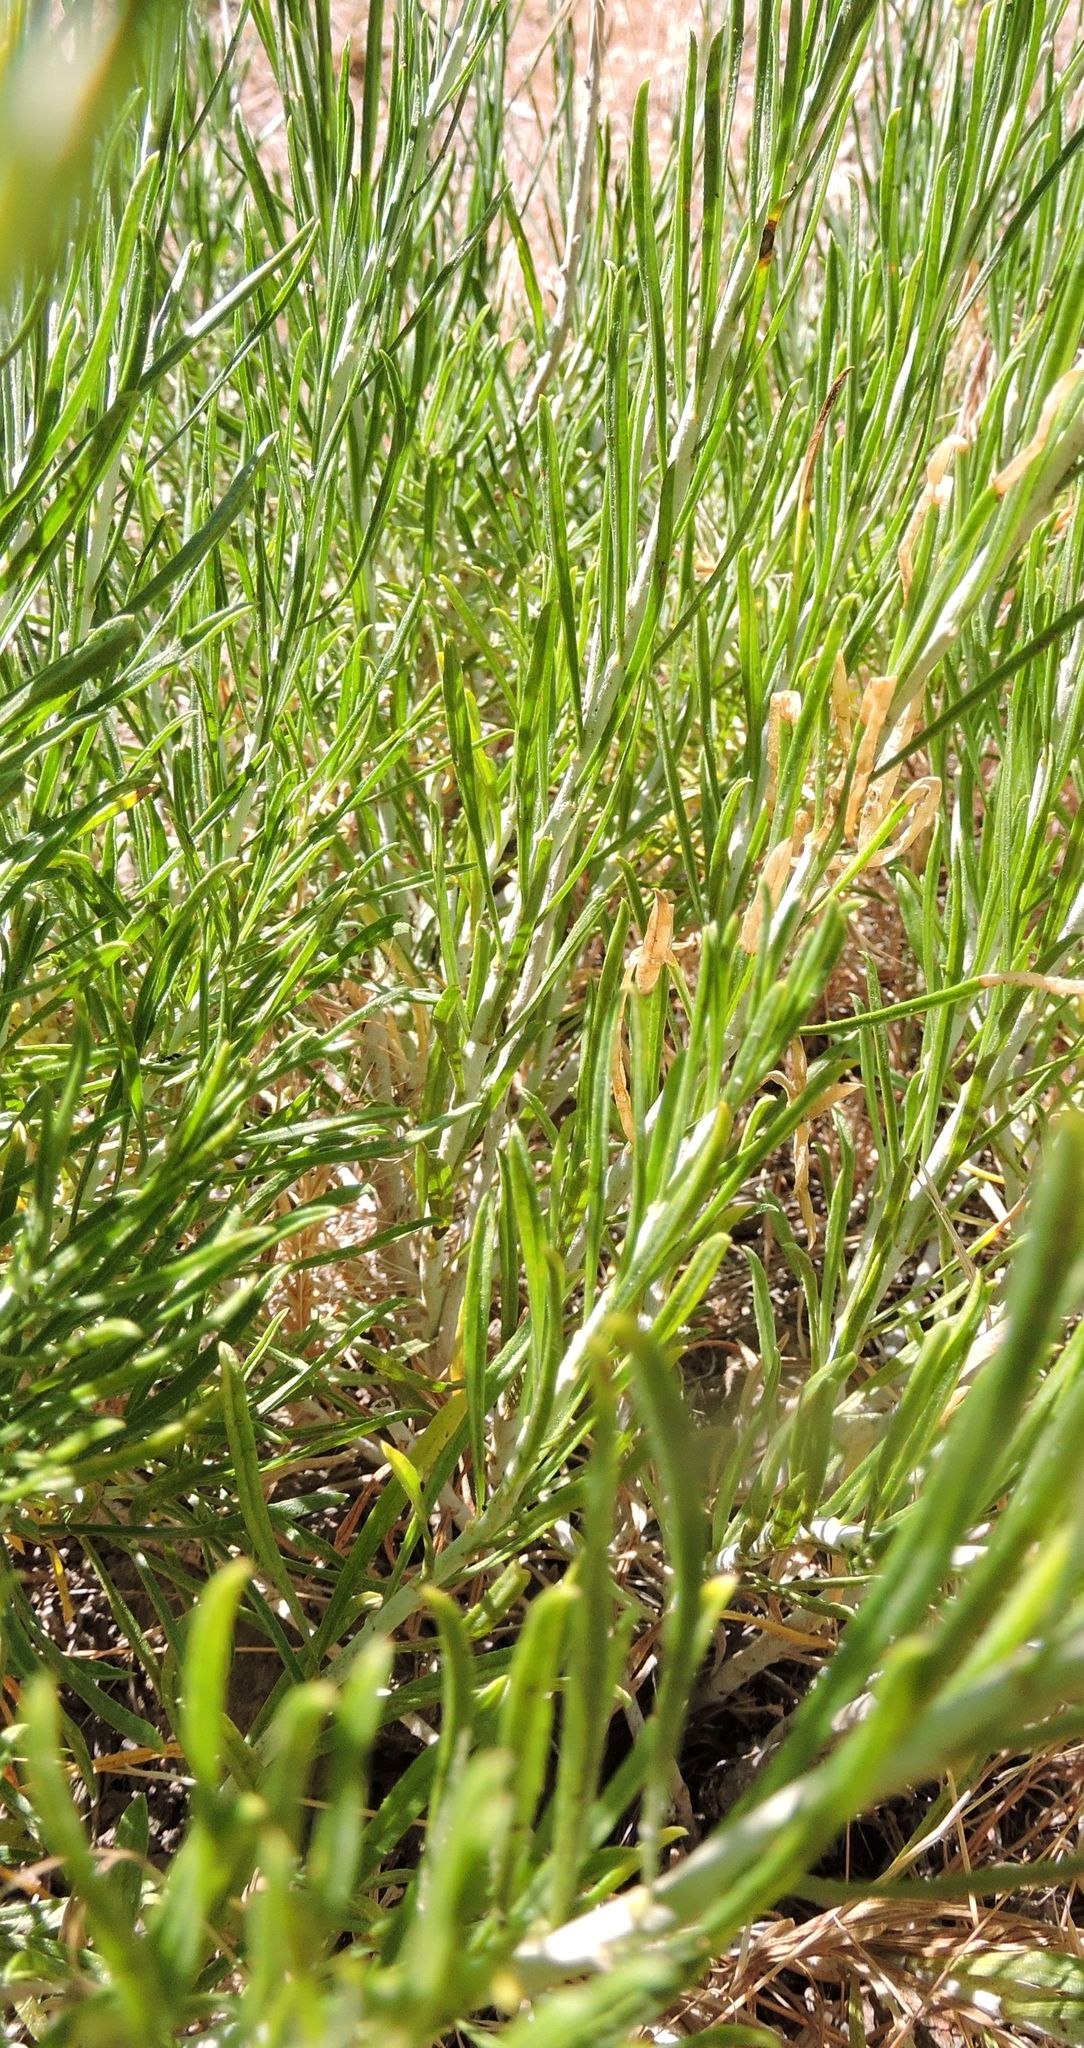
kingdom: Plantae
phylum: Tracheophyta
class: Magnoliopsida
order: Asterales
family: Asteraceae
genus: Ericameria
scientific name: Ericameria nauseosa
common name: Rubber rabbitbrush
